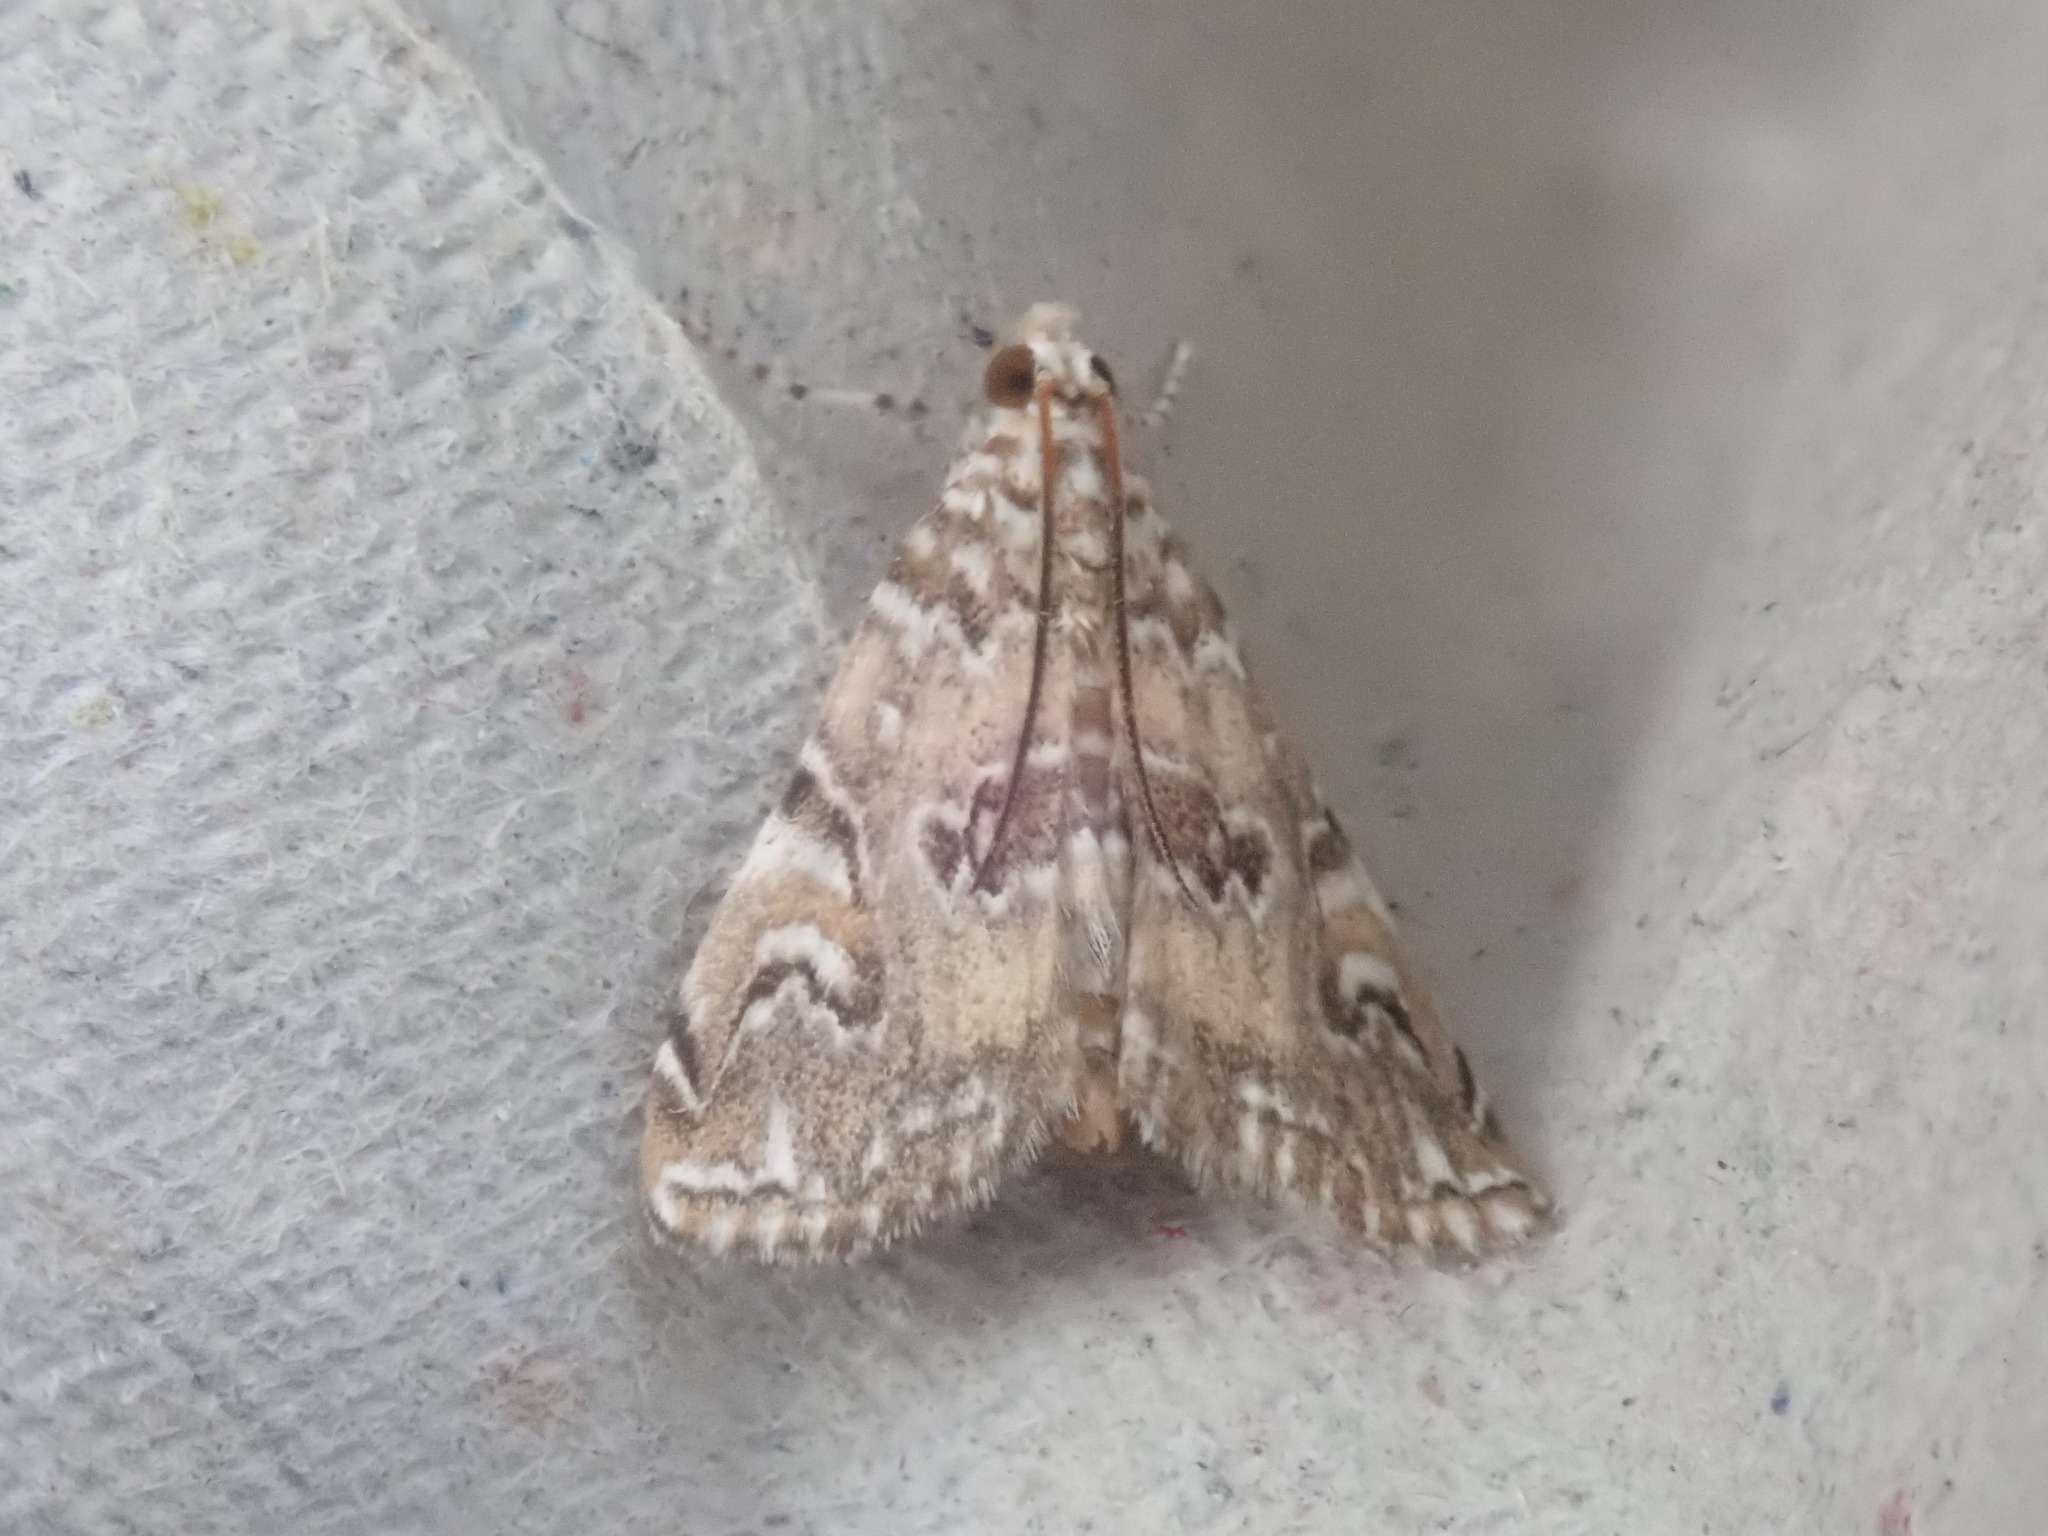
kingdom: Animalia
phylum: Arthropoda
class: Insecta
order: Lepidoptera
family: Crambidae
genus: Elophila
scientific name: Elophila gyralis
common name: Waterlily borer moth
